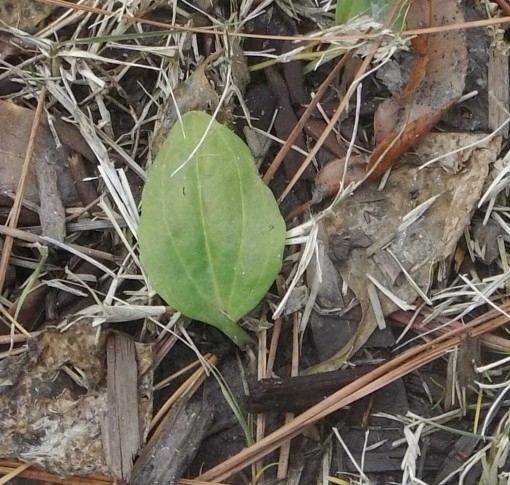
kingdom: Plantae
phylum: Tracheophyta
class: Magnoliopsida
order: Lamiales
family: Plantaginaceae
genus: Plantago
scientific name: Plantago major
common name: Common plantain
